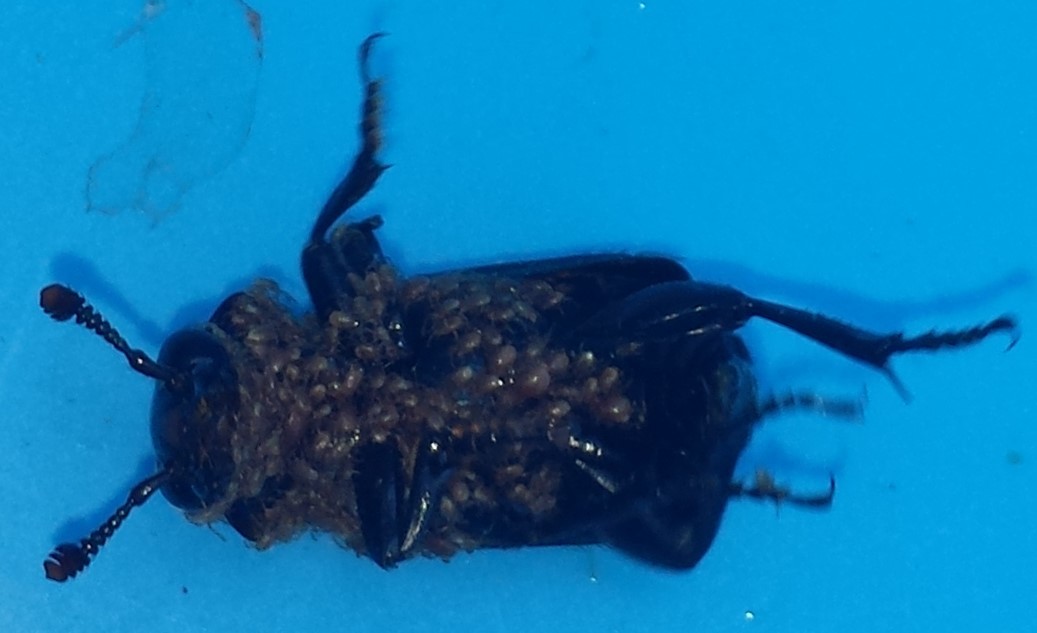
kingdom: Animalia
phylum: Arthropoda
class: Insecta
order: Coleoptera
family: Staphylinidae
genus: Nicrophorus
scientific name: Nicrophorus pustulatus
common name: Pustulated carrion beetle
